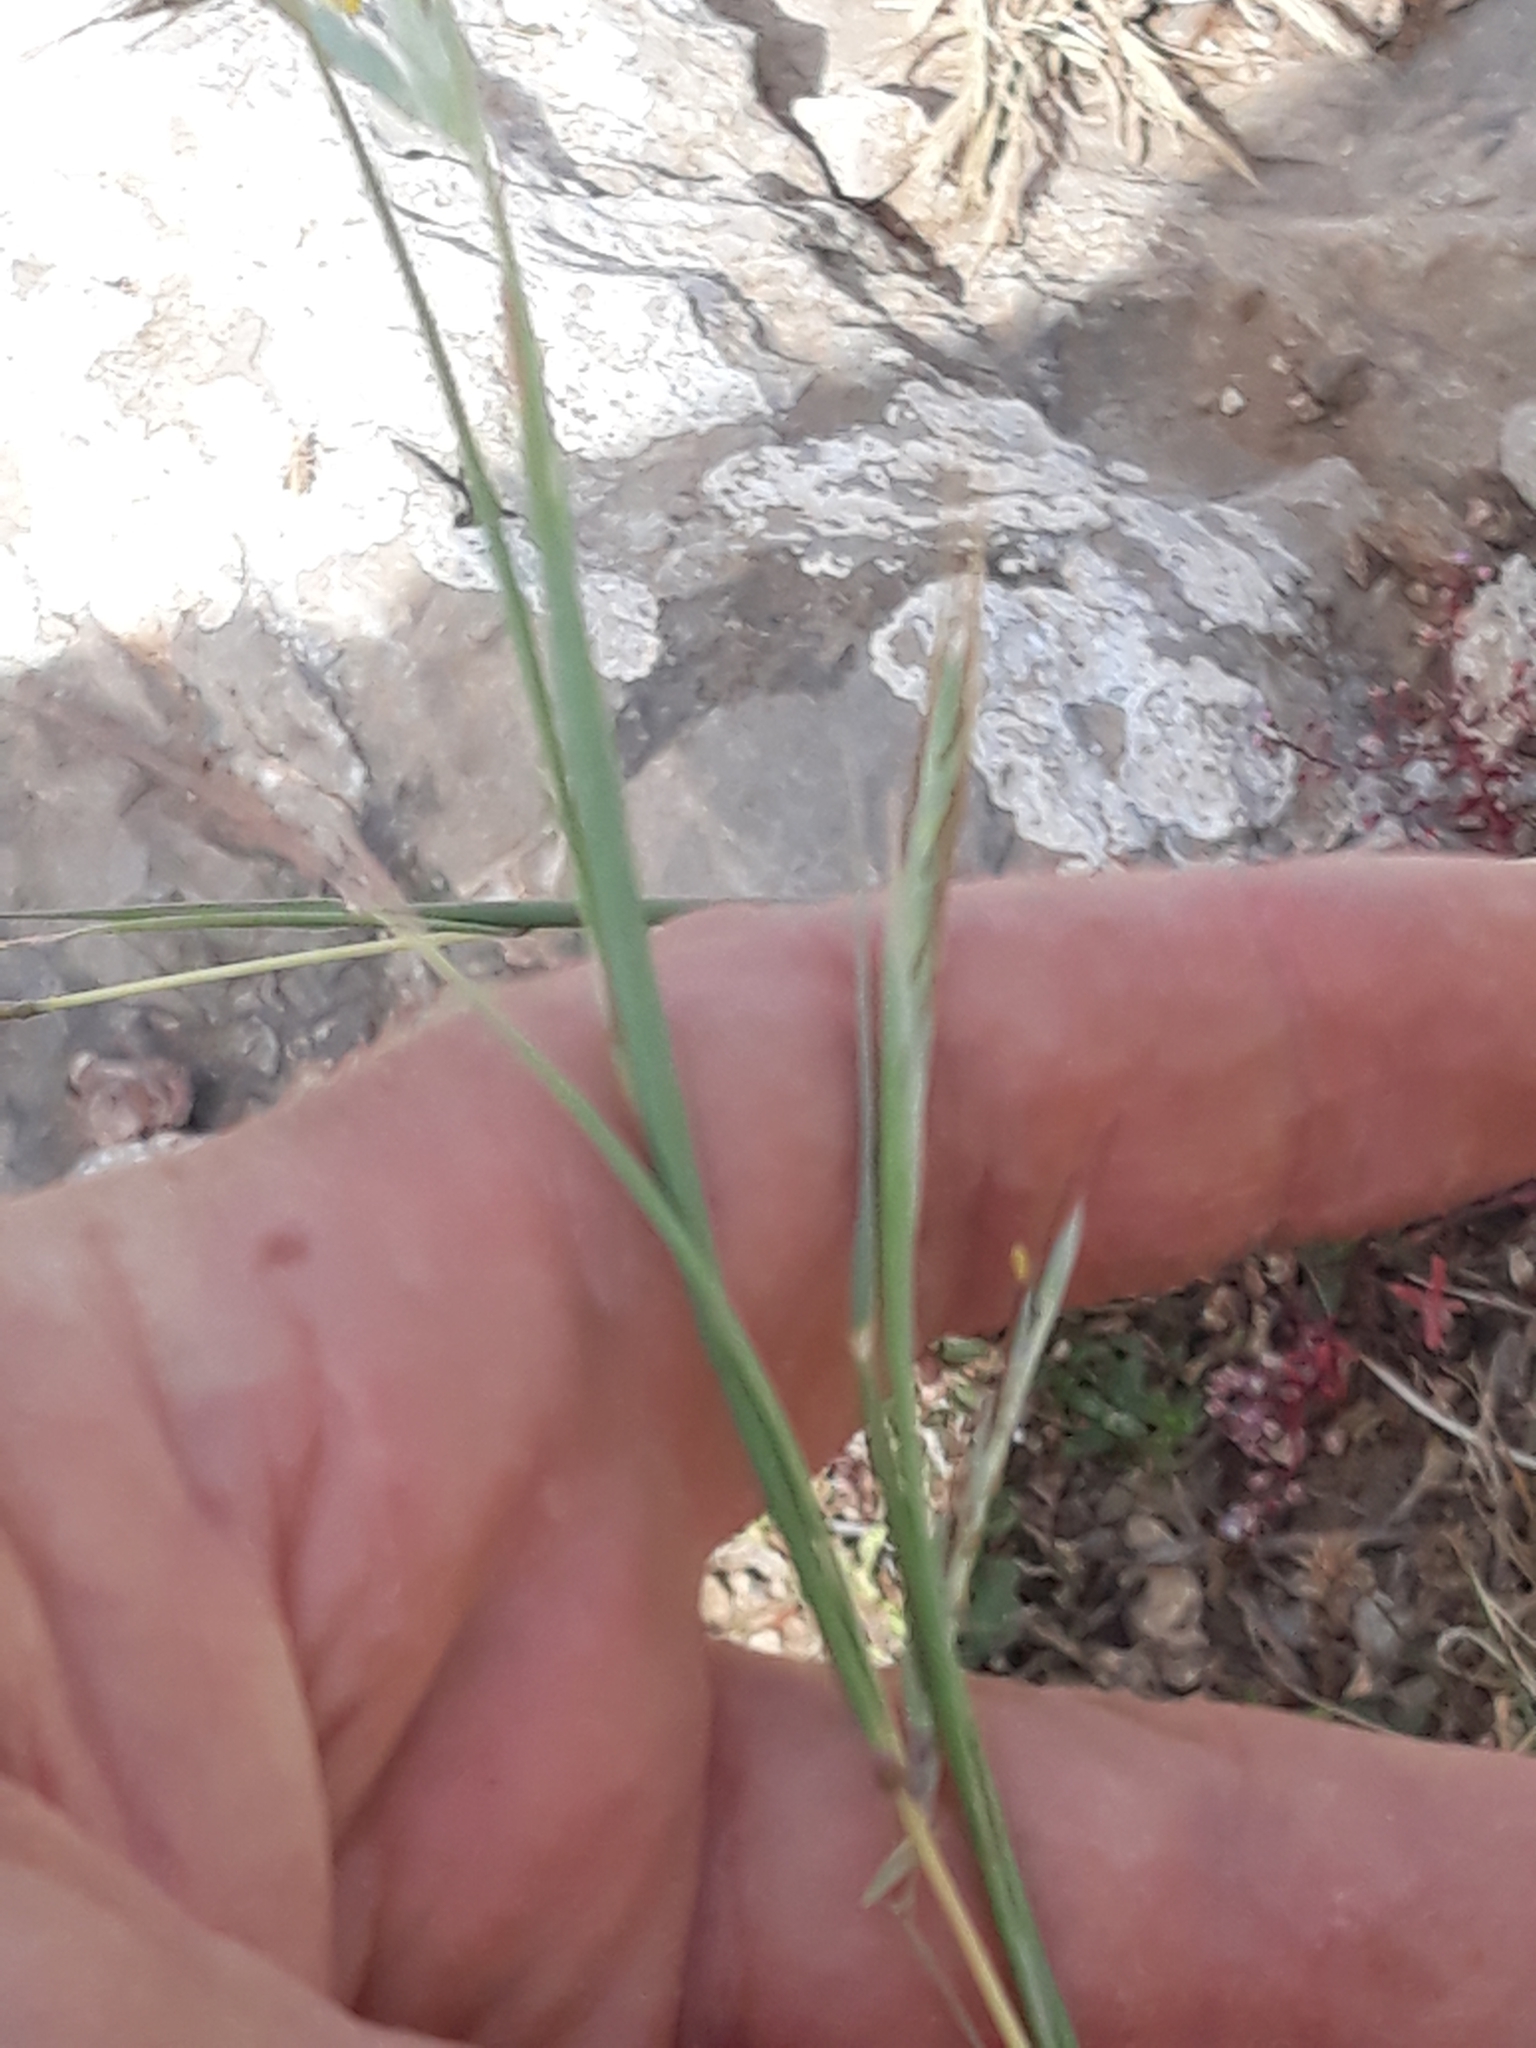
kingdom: Plantae
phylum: Tracheophyta
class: Liliopsida
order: Poales
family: Poaceae
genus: Hyparrhenia
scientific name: Hyparrhenia hirta
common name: Thatching grass
